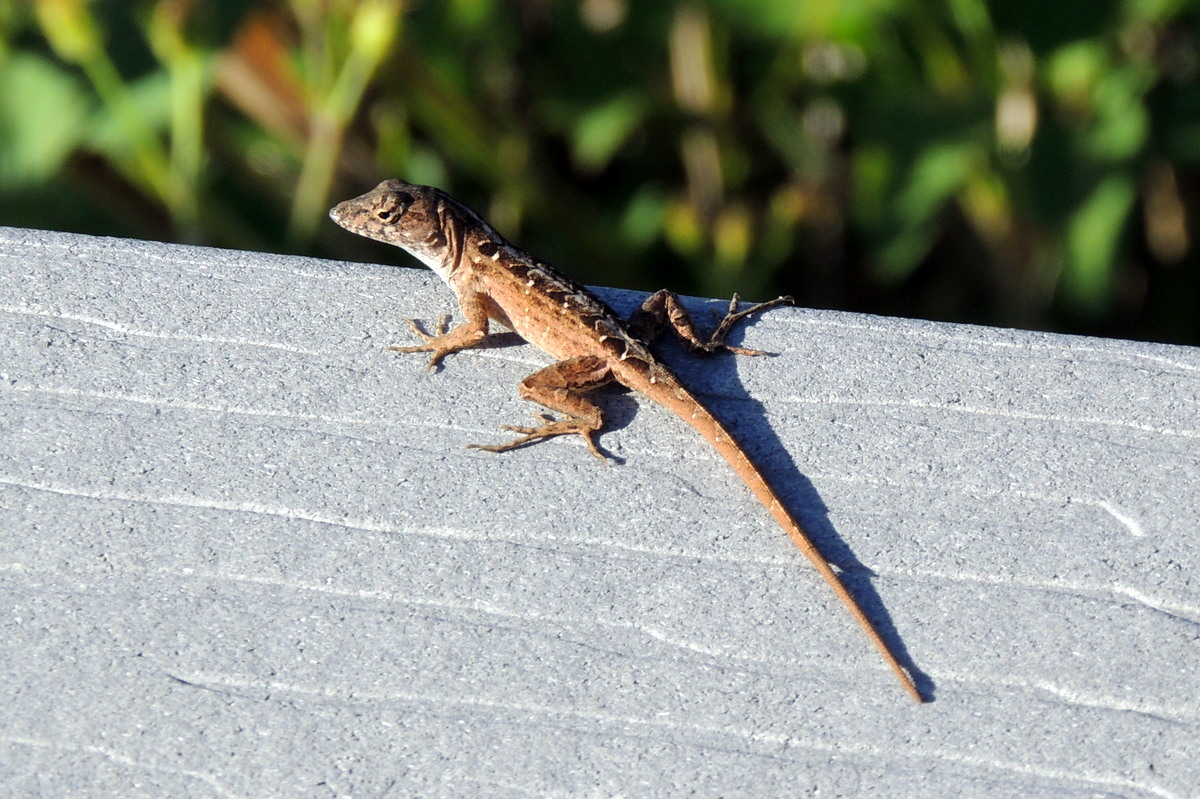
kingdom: Animalia
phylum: Chordata
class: Squamata
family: Dactyloidae
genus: Anolis
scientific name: Anolis sagrei
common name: Brown anole
